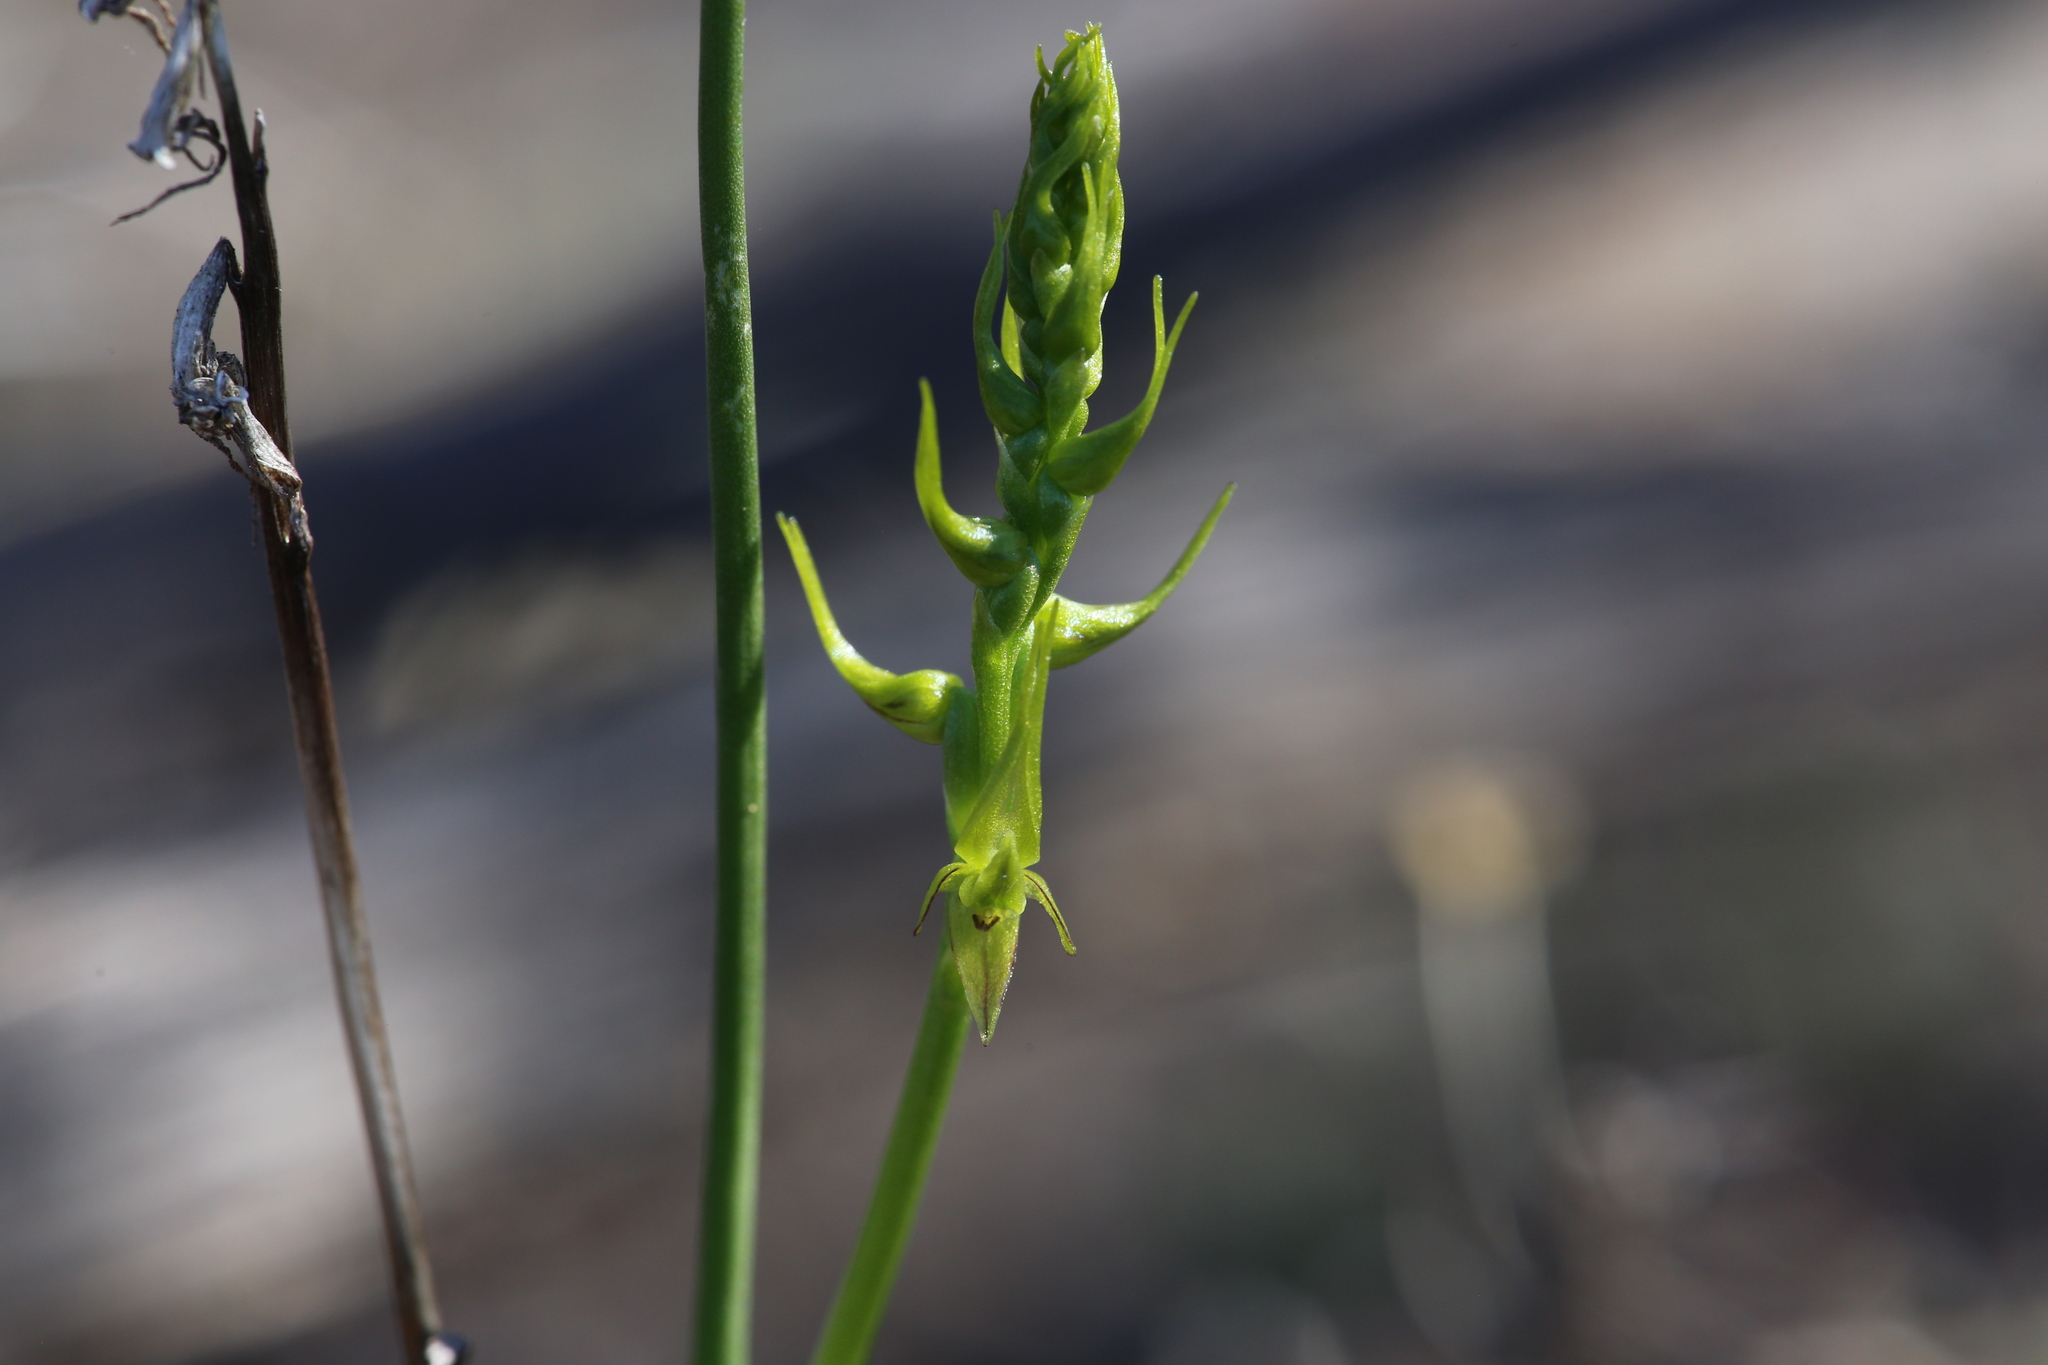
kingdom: Plantae
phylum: Tracheophyta
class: Liliopsida
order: Asparagales
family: Orchidaceae
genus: Prasophyllum
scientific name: Prasophyllum gracile
